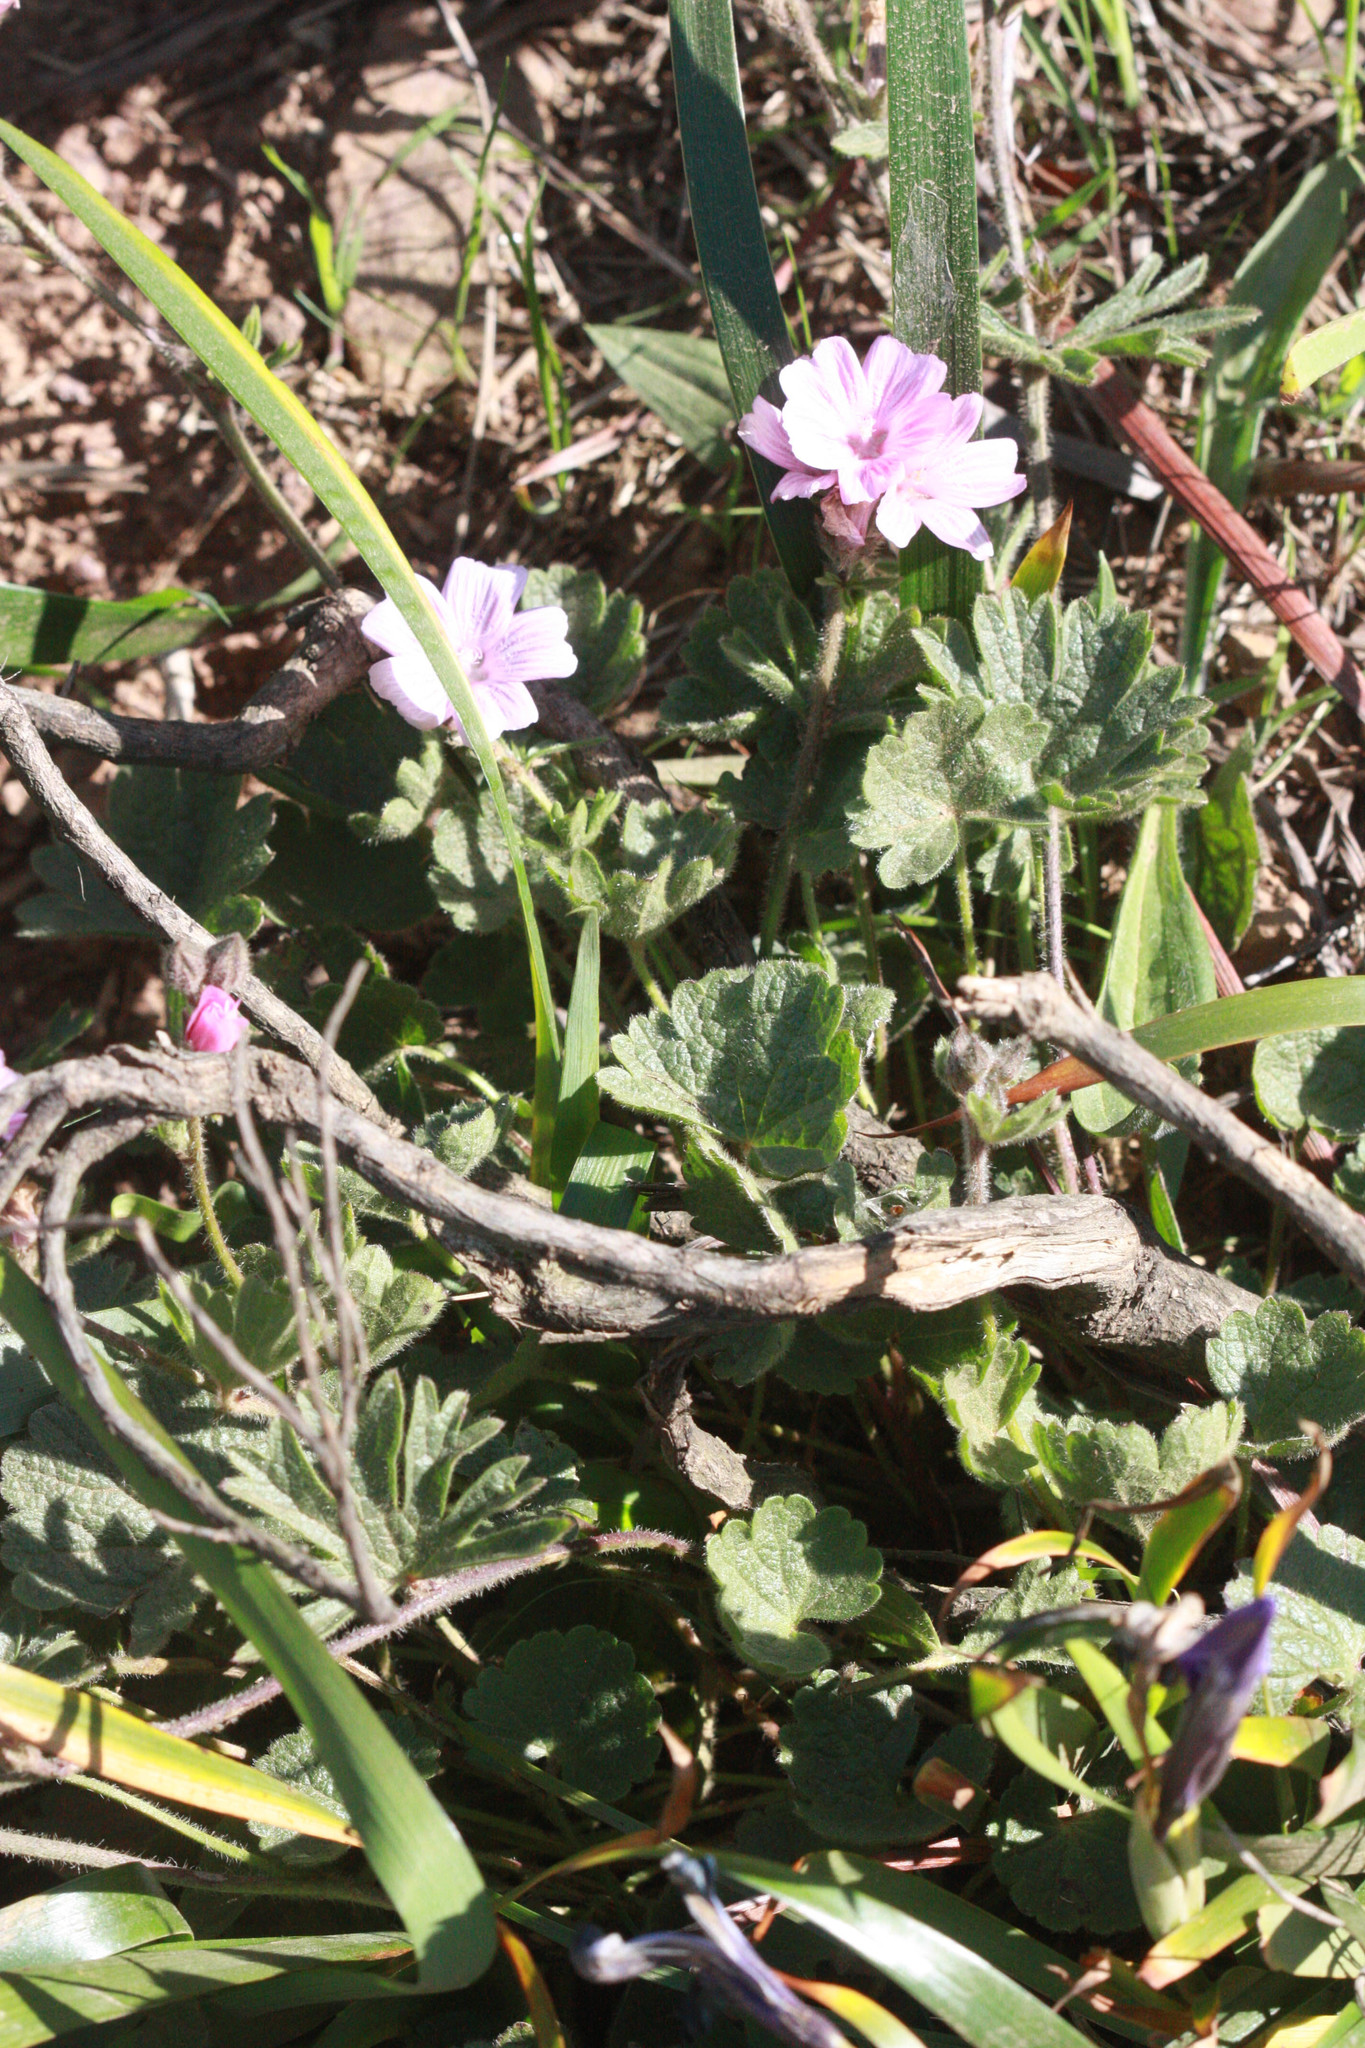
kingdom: Plantae
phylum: Tracheophyta
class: Magnoliopsida
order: Malvales
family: Malvaceae
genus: Sidalcea
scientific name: Sidalcea malviflora
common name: Greek mallow
